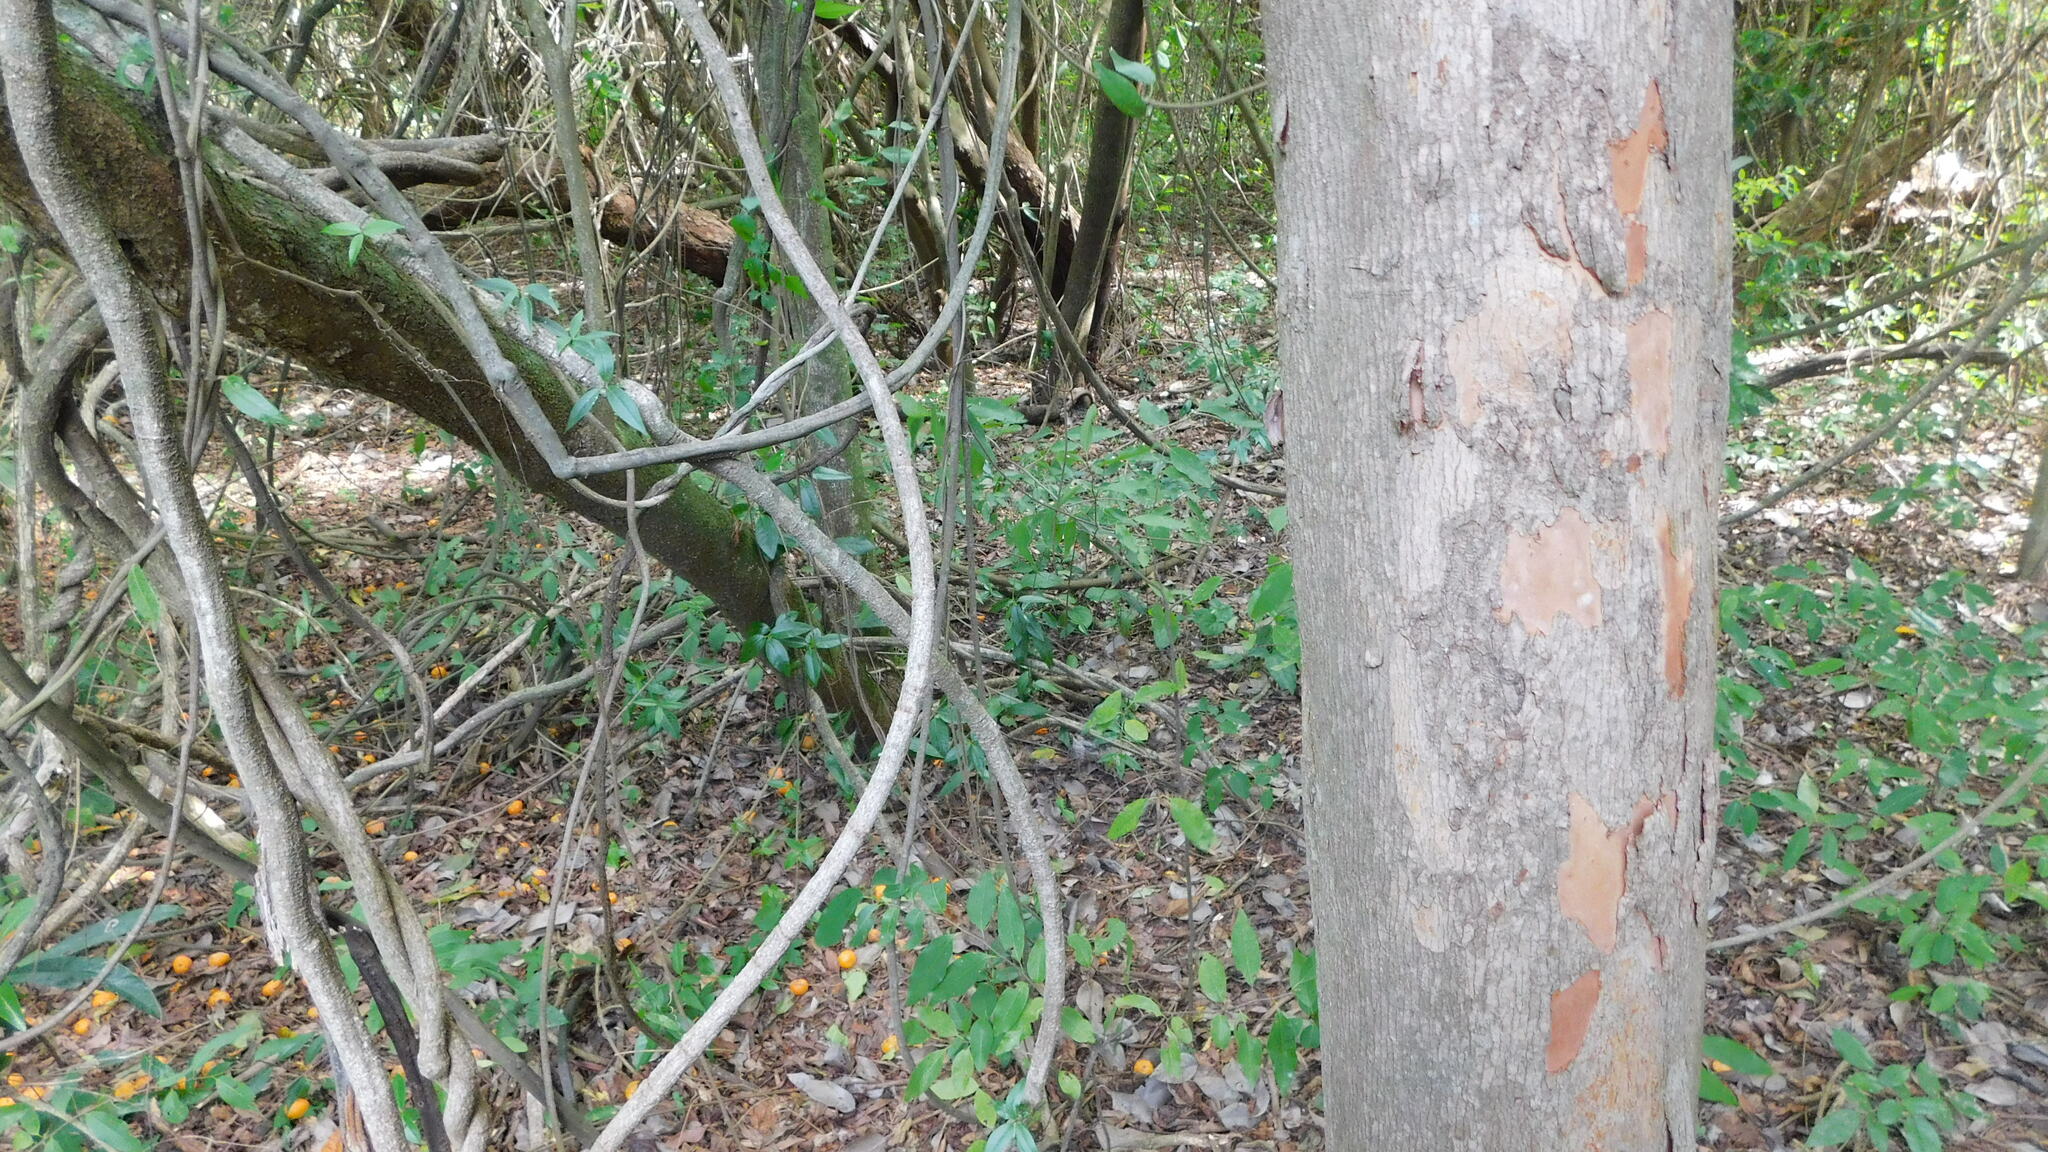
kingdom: Plantae
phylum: Tracheophyta
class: Magnoliopsida
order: Myrtales
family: Myrtaceae
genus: Eugenia
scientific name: Eugenia pyriformis
